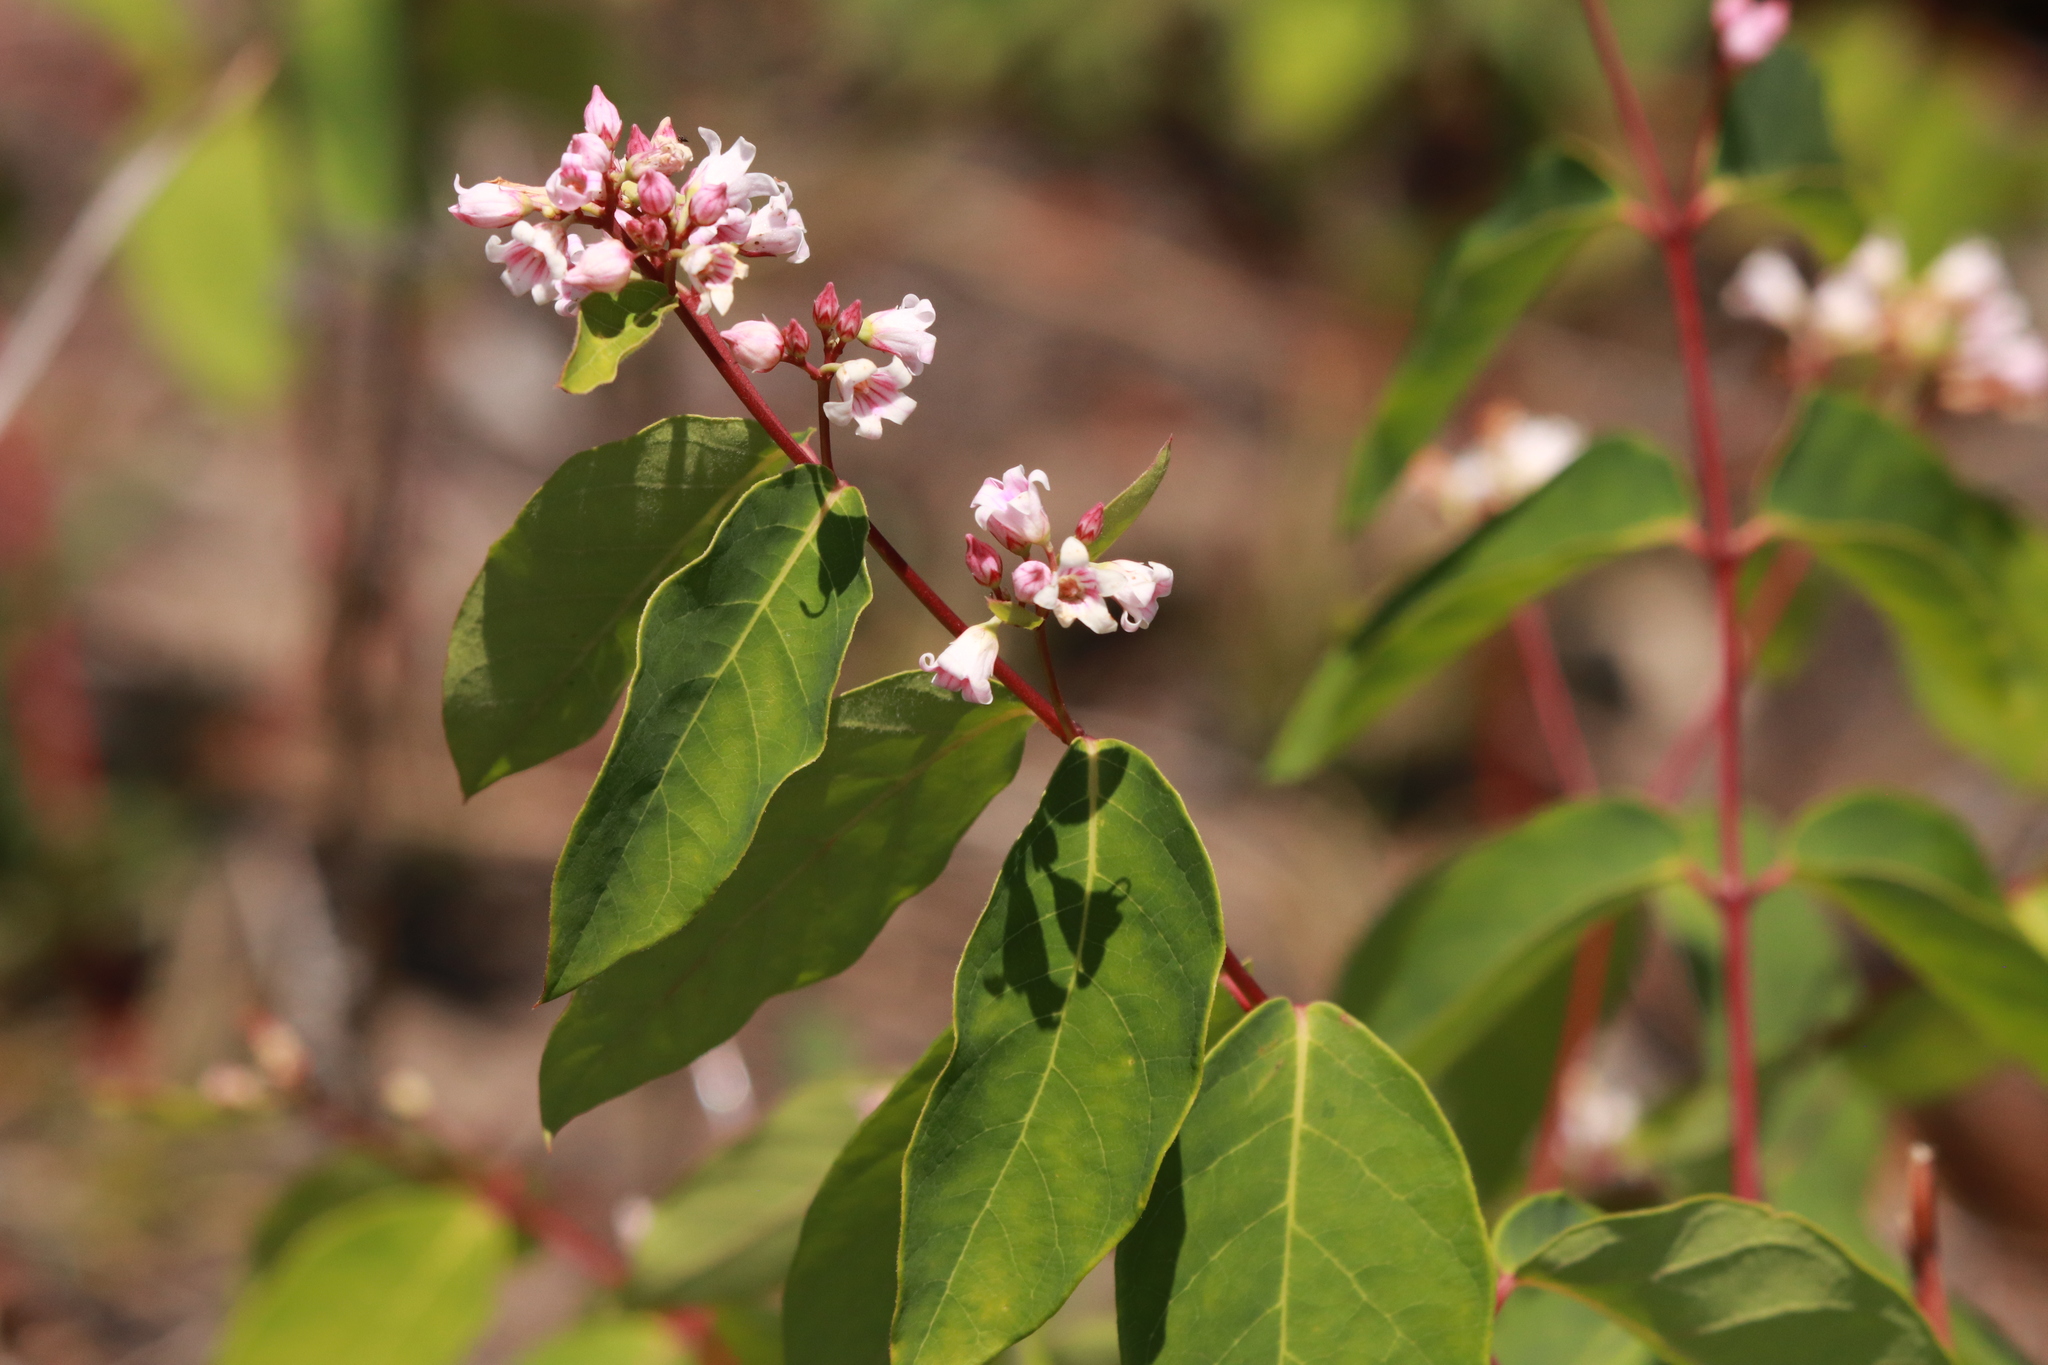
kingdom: Plantae
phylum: Tracheophyta
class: Magnoliopsida
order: Gentianales
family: Apocynaceae
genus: Apocynum
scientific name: Apocynum androsaemifolium
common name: Spreading dogbane
